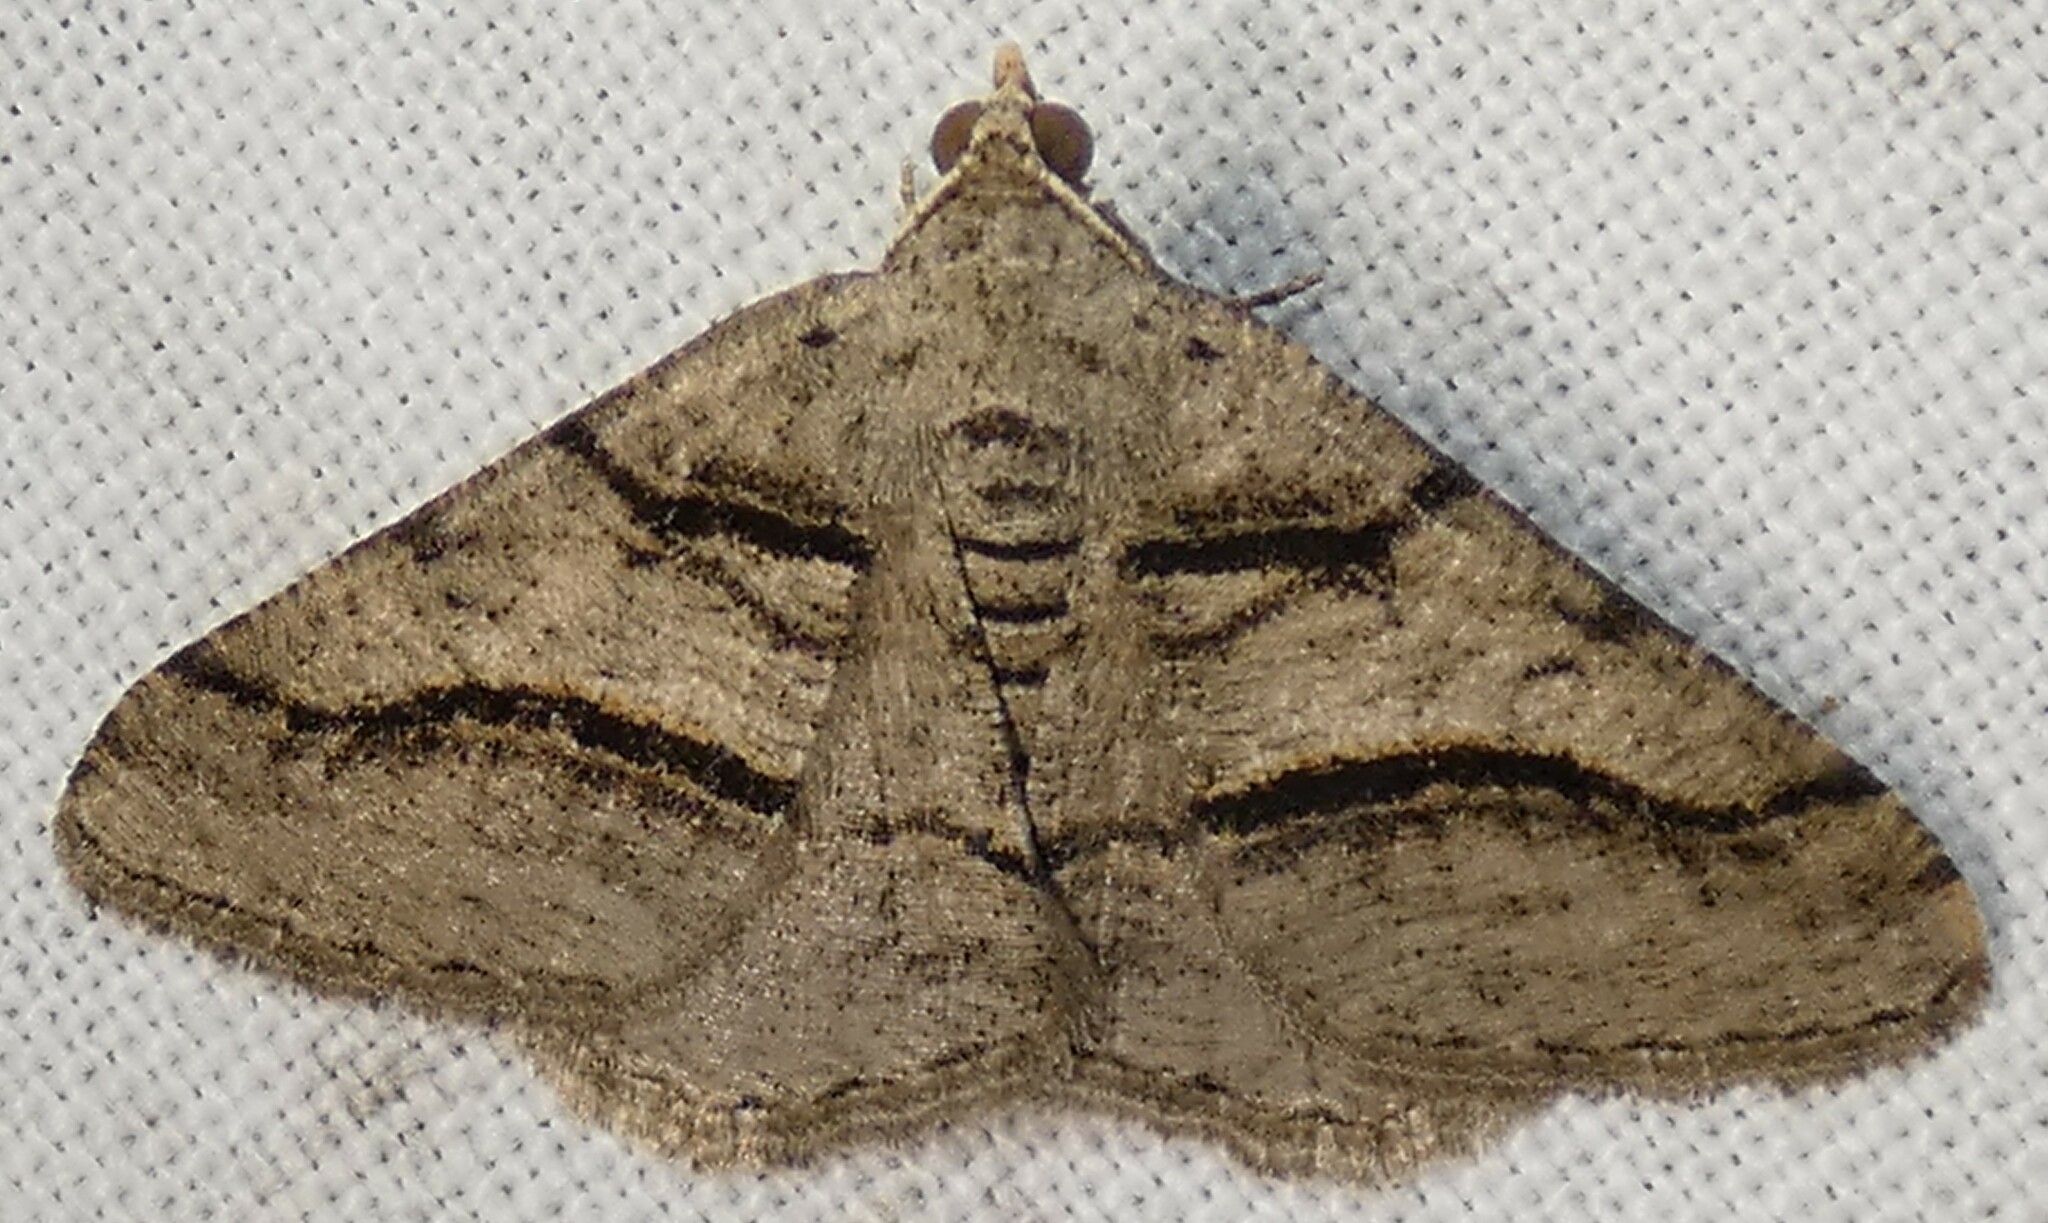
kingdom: Animalia
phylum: Arthropoda
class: Insecta
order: Lepidoptera
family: Geometridae
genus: Digrammia
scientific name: Digrammia continuata
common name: Curve-lined angle
